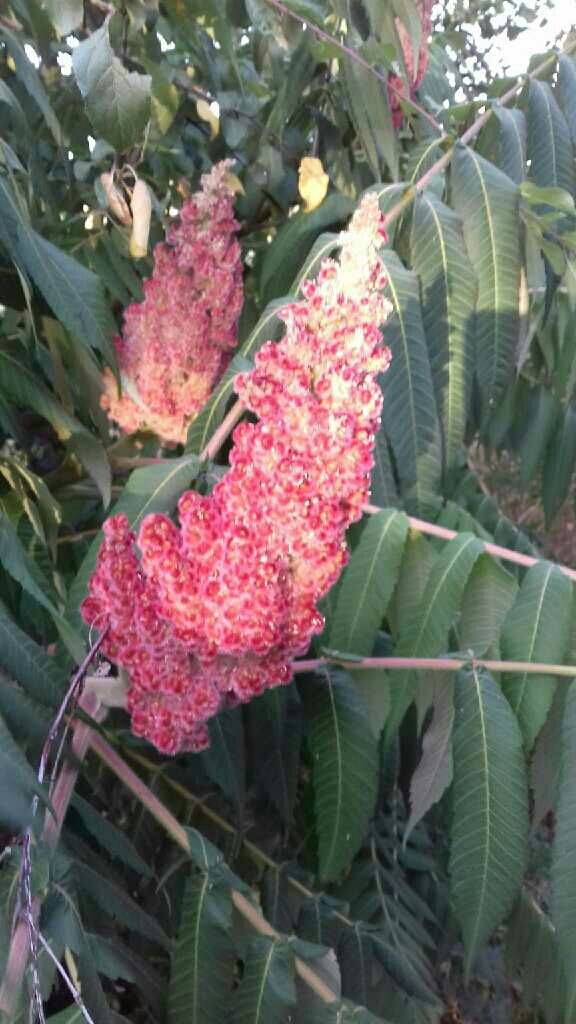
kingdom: Plantae
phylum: Tracheophyta
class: Magnoliopsida
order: Sapindales
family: Anacardiaceae
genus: Rhus
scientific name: Rhus typhina
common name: Staghorn sumac
